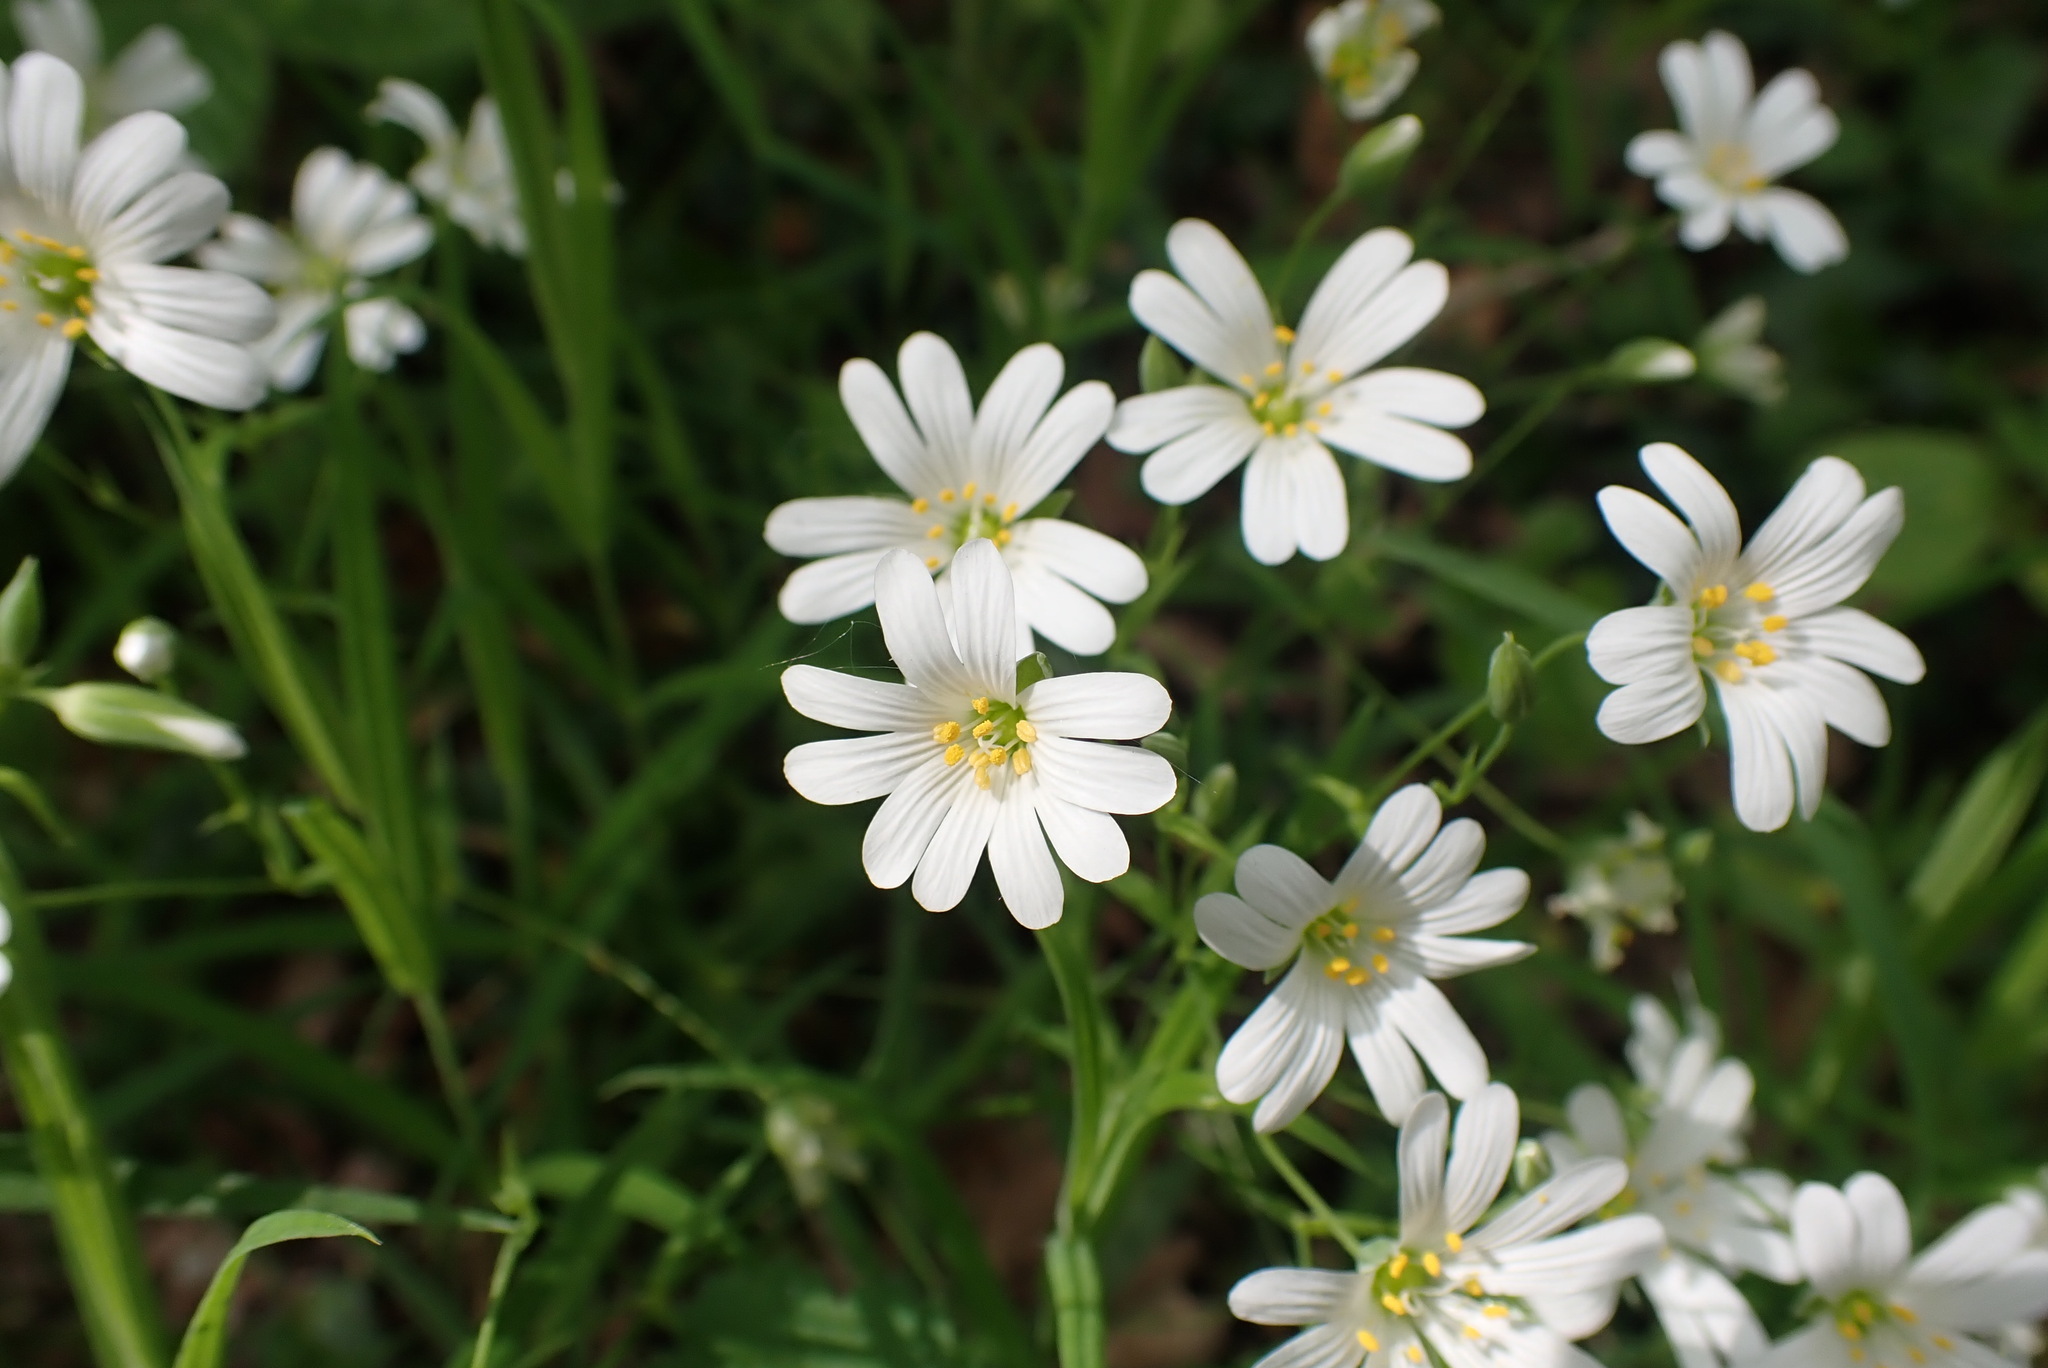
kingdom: Plantae
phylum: Tracheophyta
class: Magnoliopsida
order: Caryophyllales
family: Caryophyllaceae
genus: Rabelera
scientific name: Rabelera holostea
